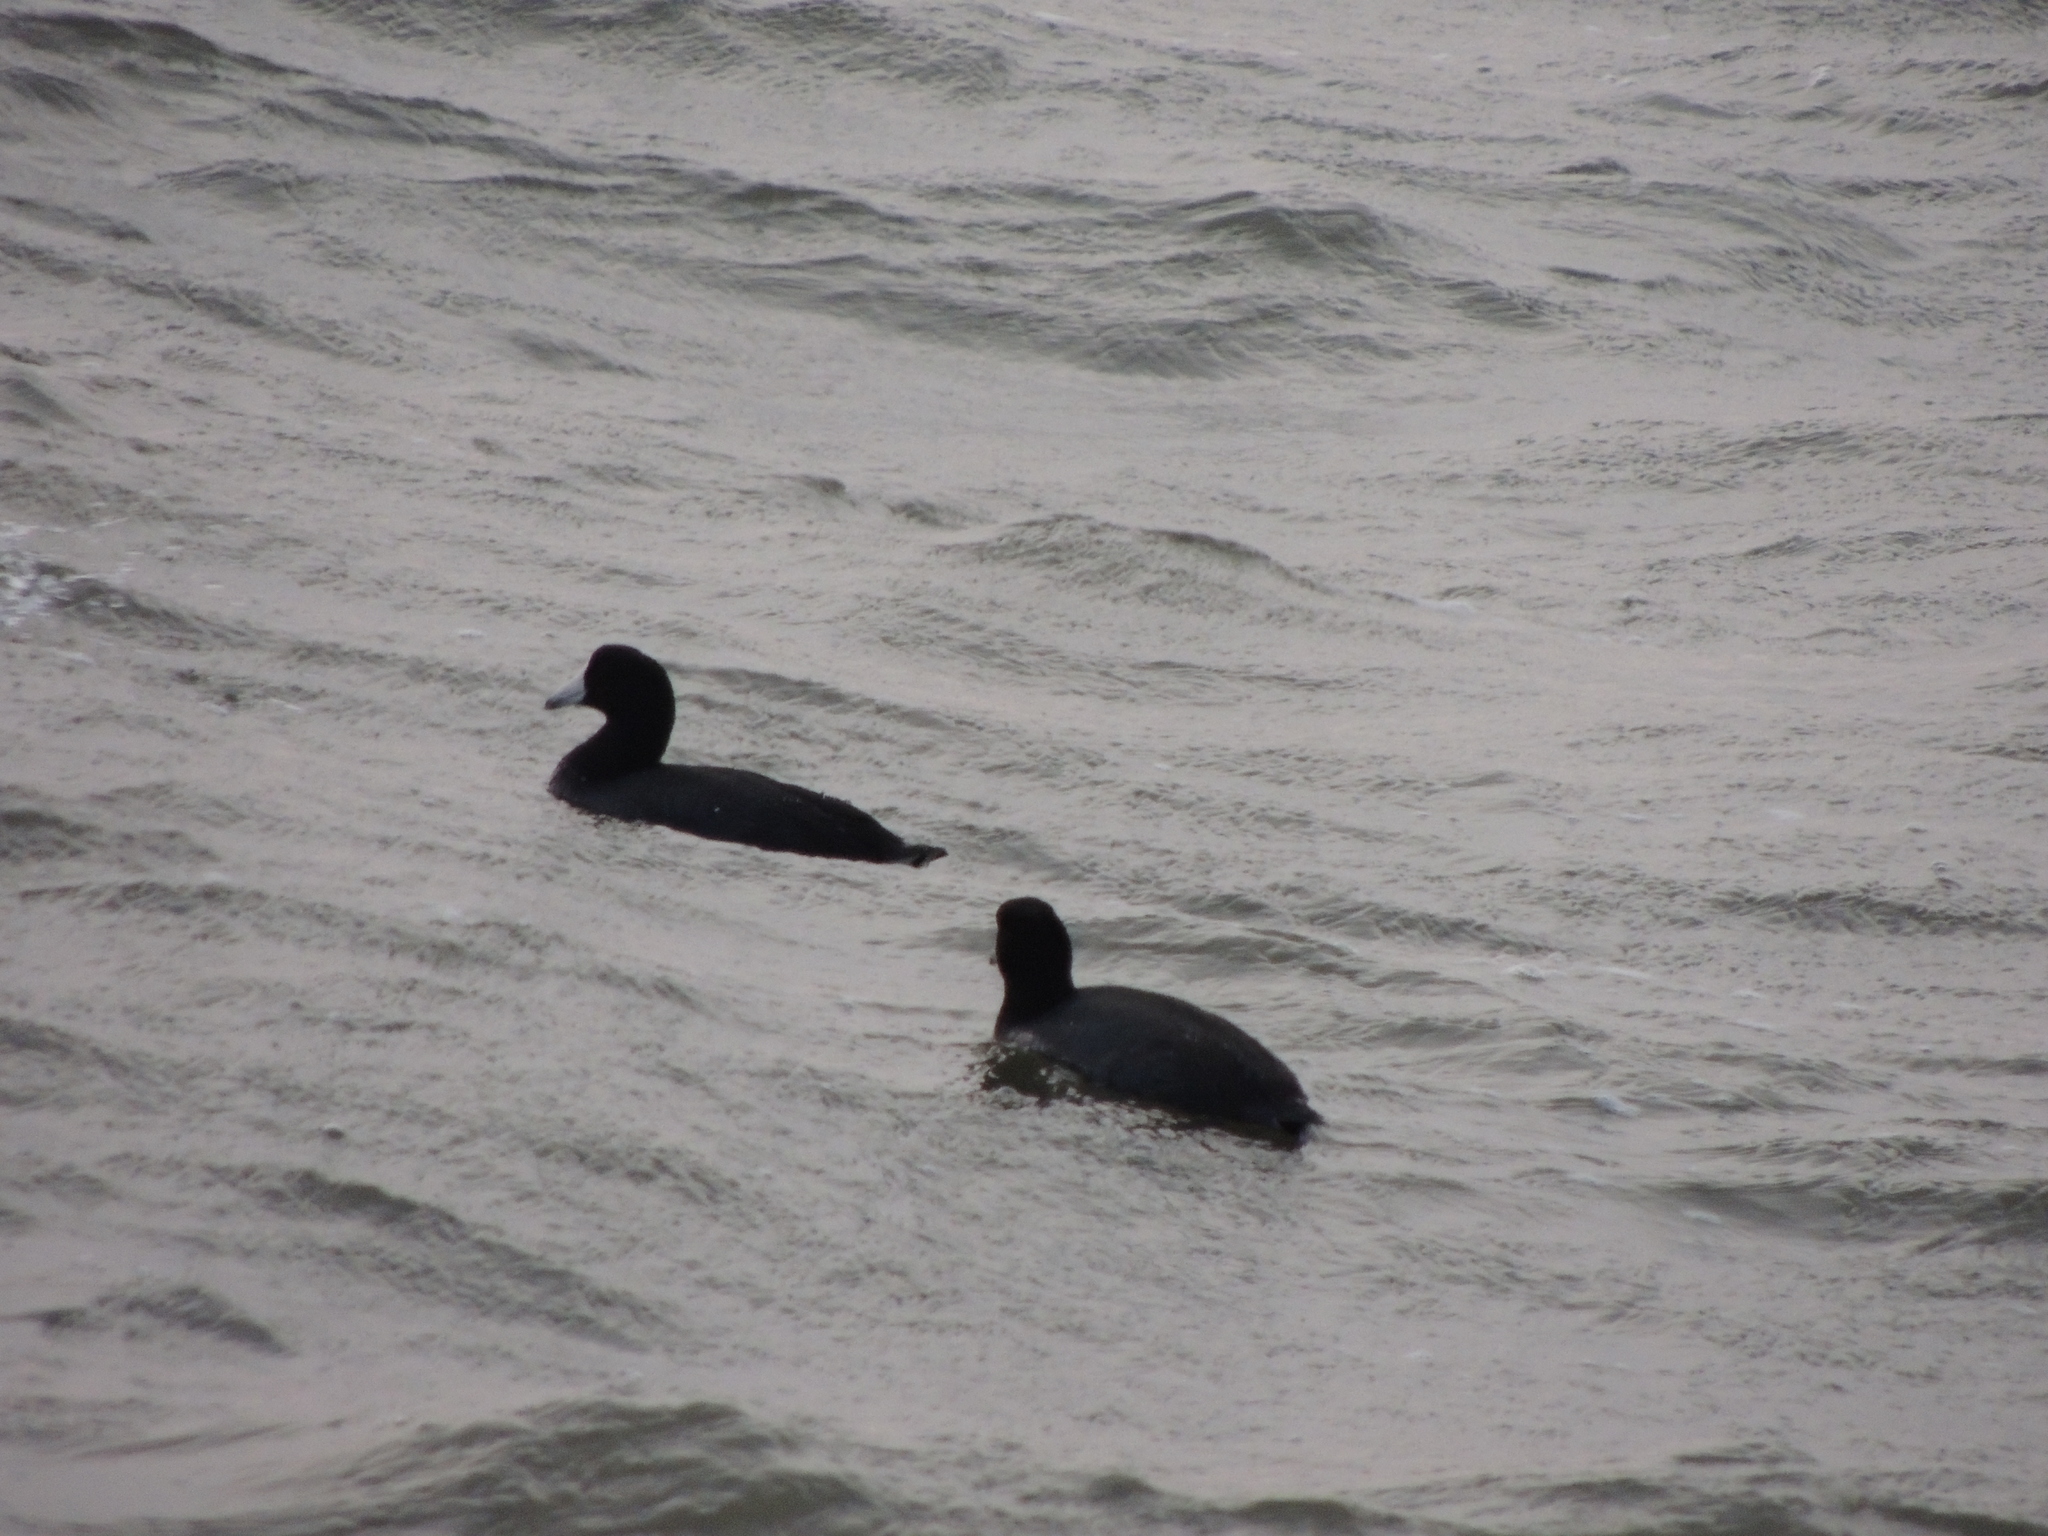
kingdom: Animalia
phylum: Chordata
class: Aves
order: Gruiformes
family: Rallidae
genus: Fulica
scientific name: Fulica americana
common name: American coot
